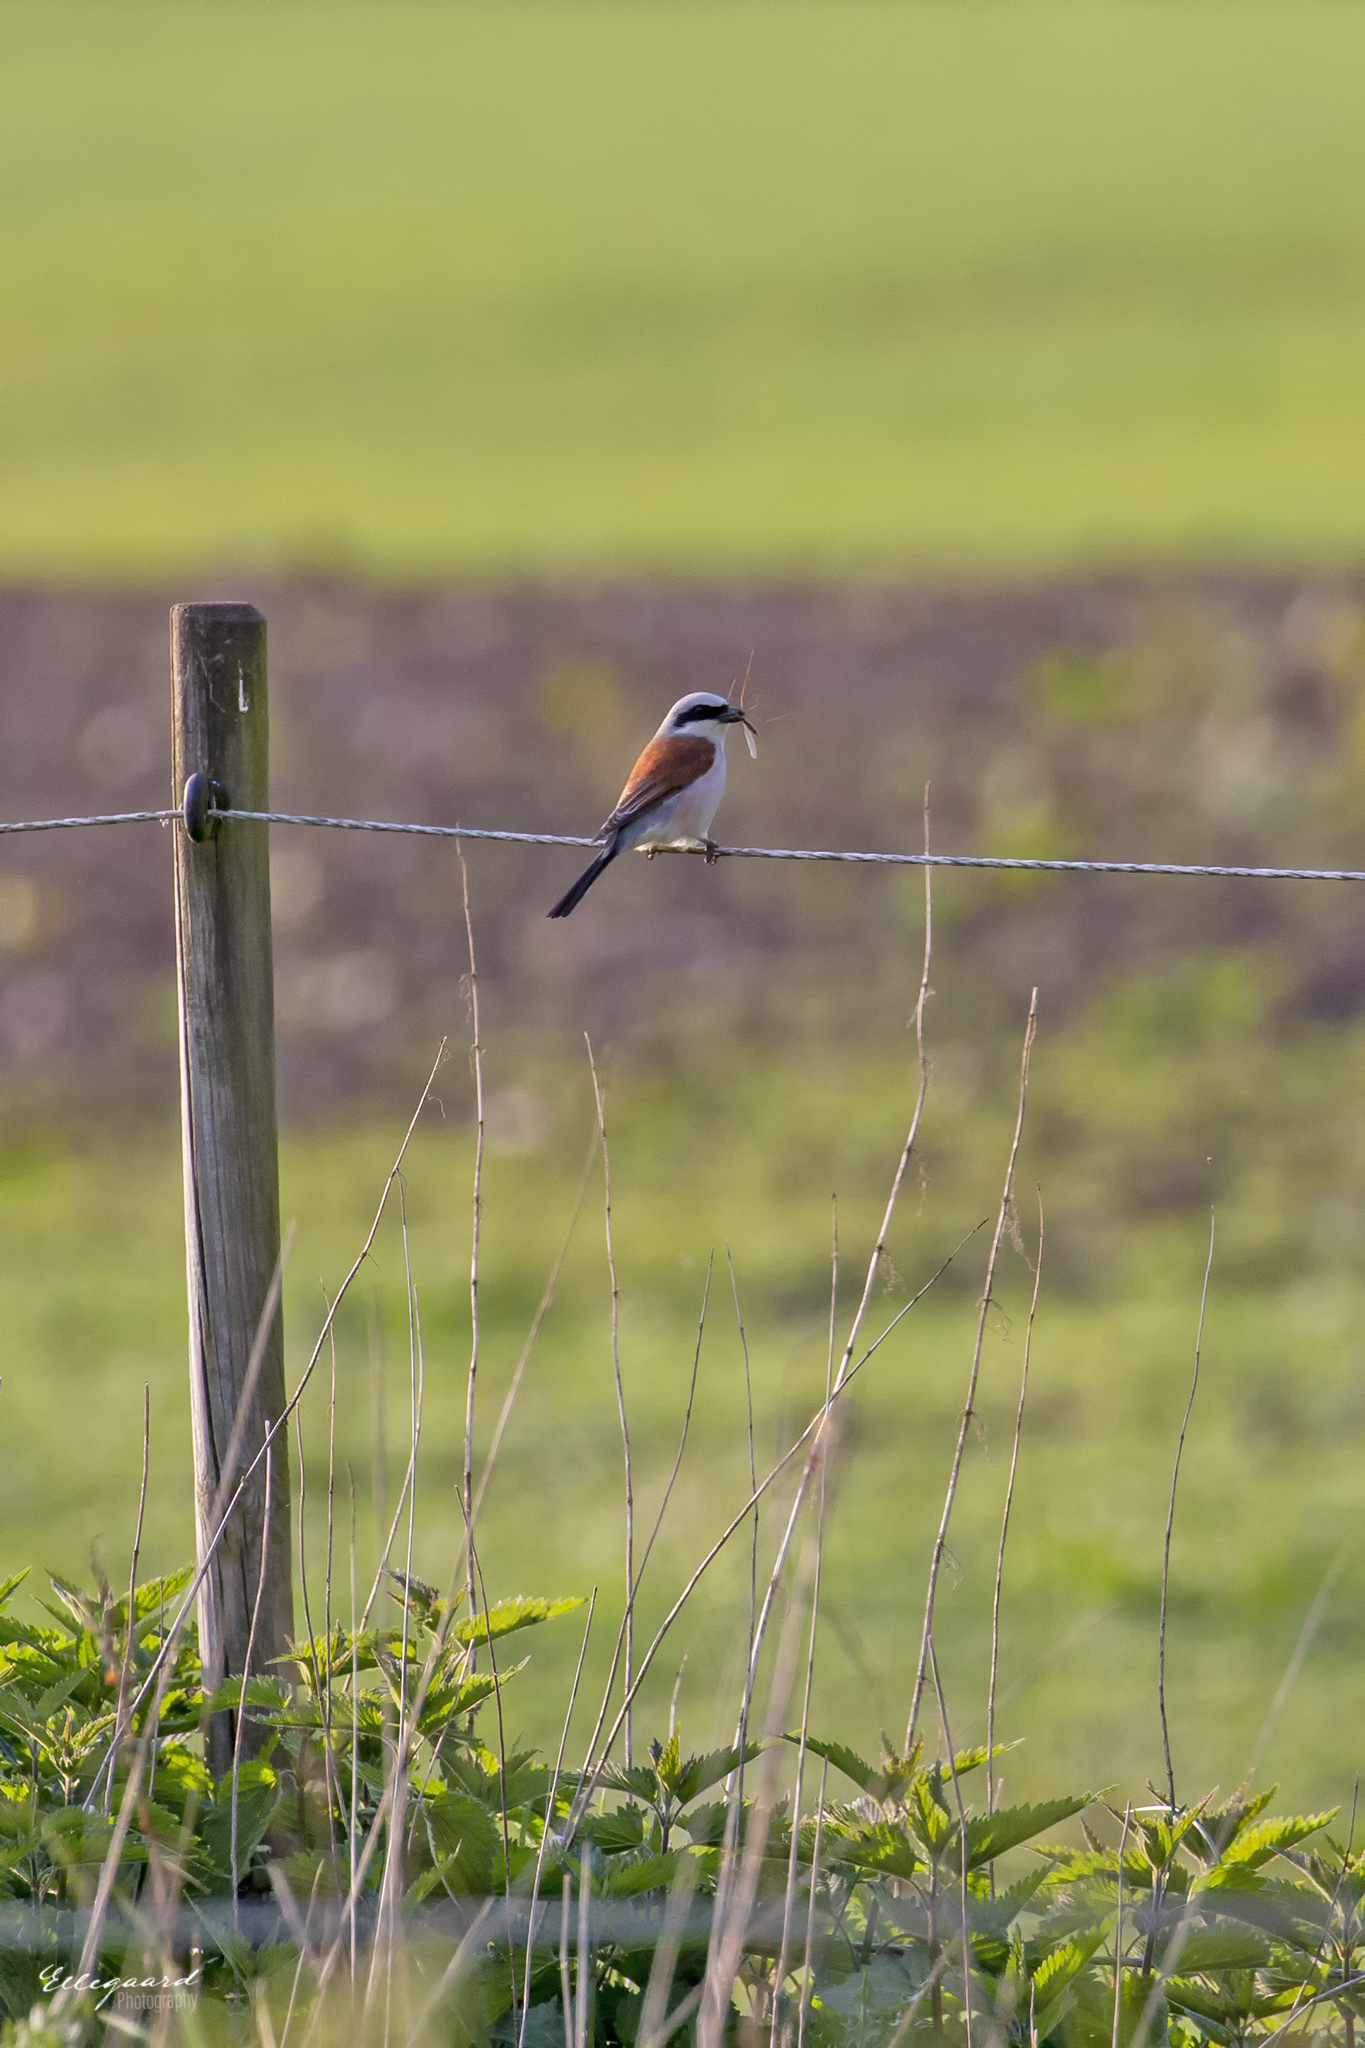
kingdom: Animalia
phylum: Chordata
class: Aves
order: Passeriformes
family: Laniidae
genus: Lanius
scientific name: Lanius collurio
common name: Red-backed shrike
